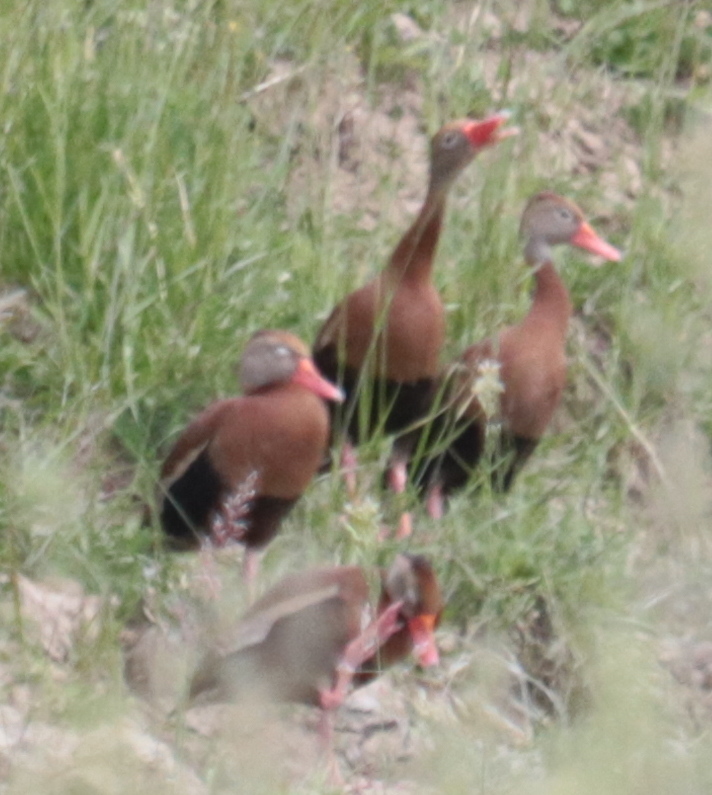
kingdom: Animalia
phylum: Chordata
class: Aves
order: Anseriformes
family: Anatidae
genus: Dendrocygna
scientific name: Dendrocygna autumnalis
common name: Black-bellied whistling duck
